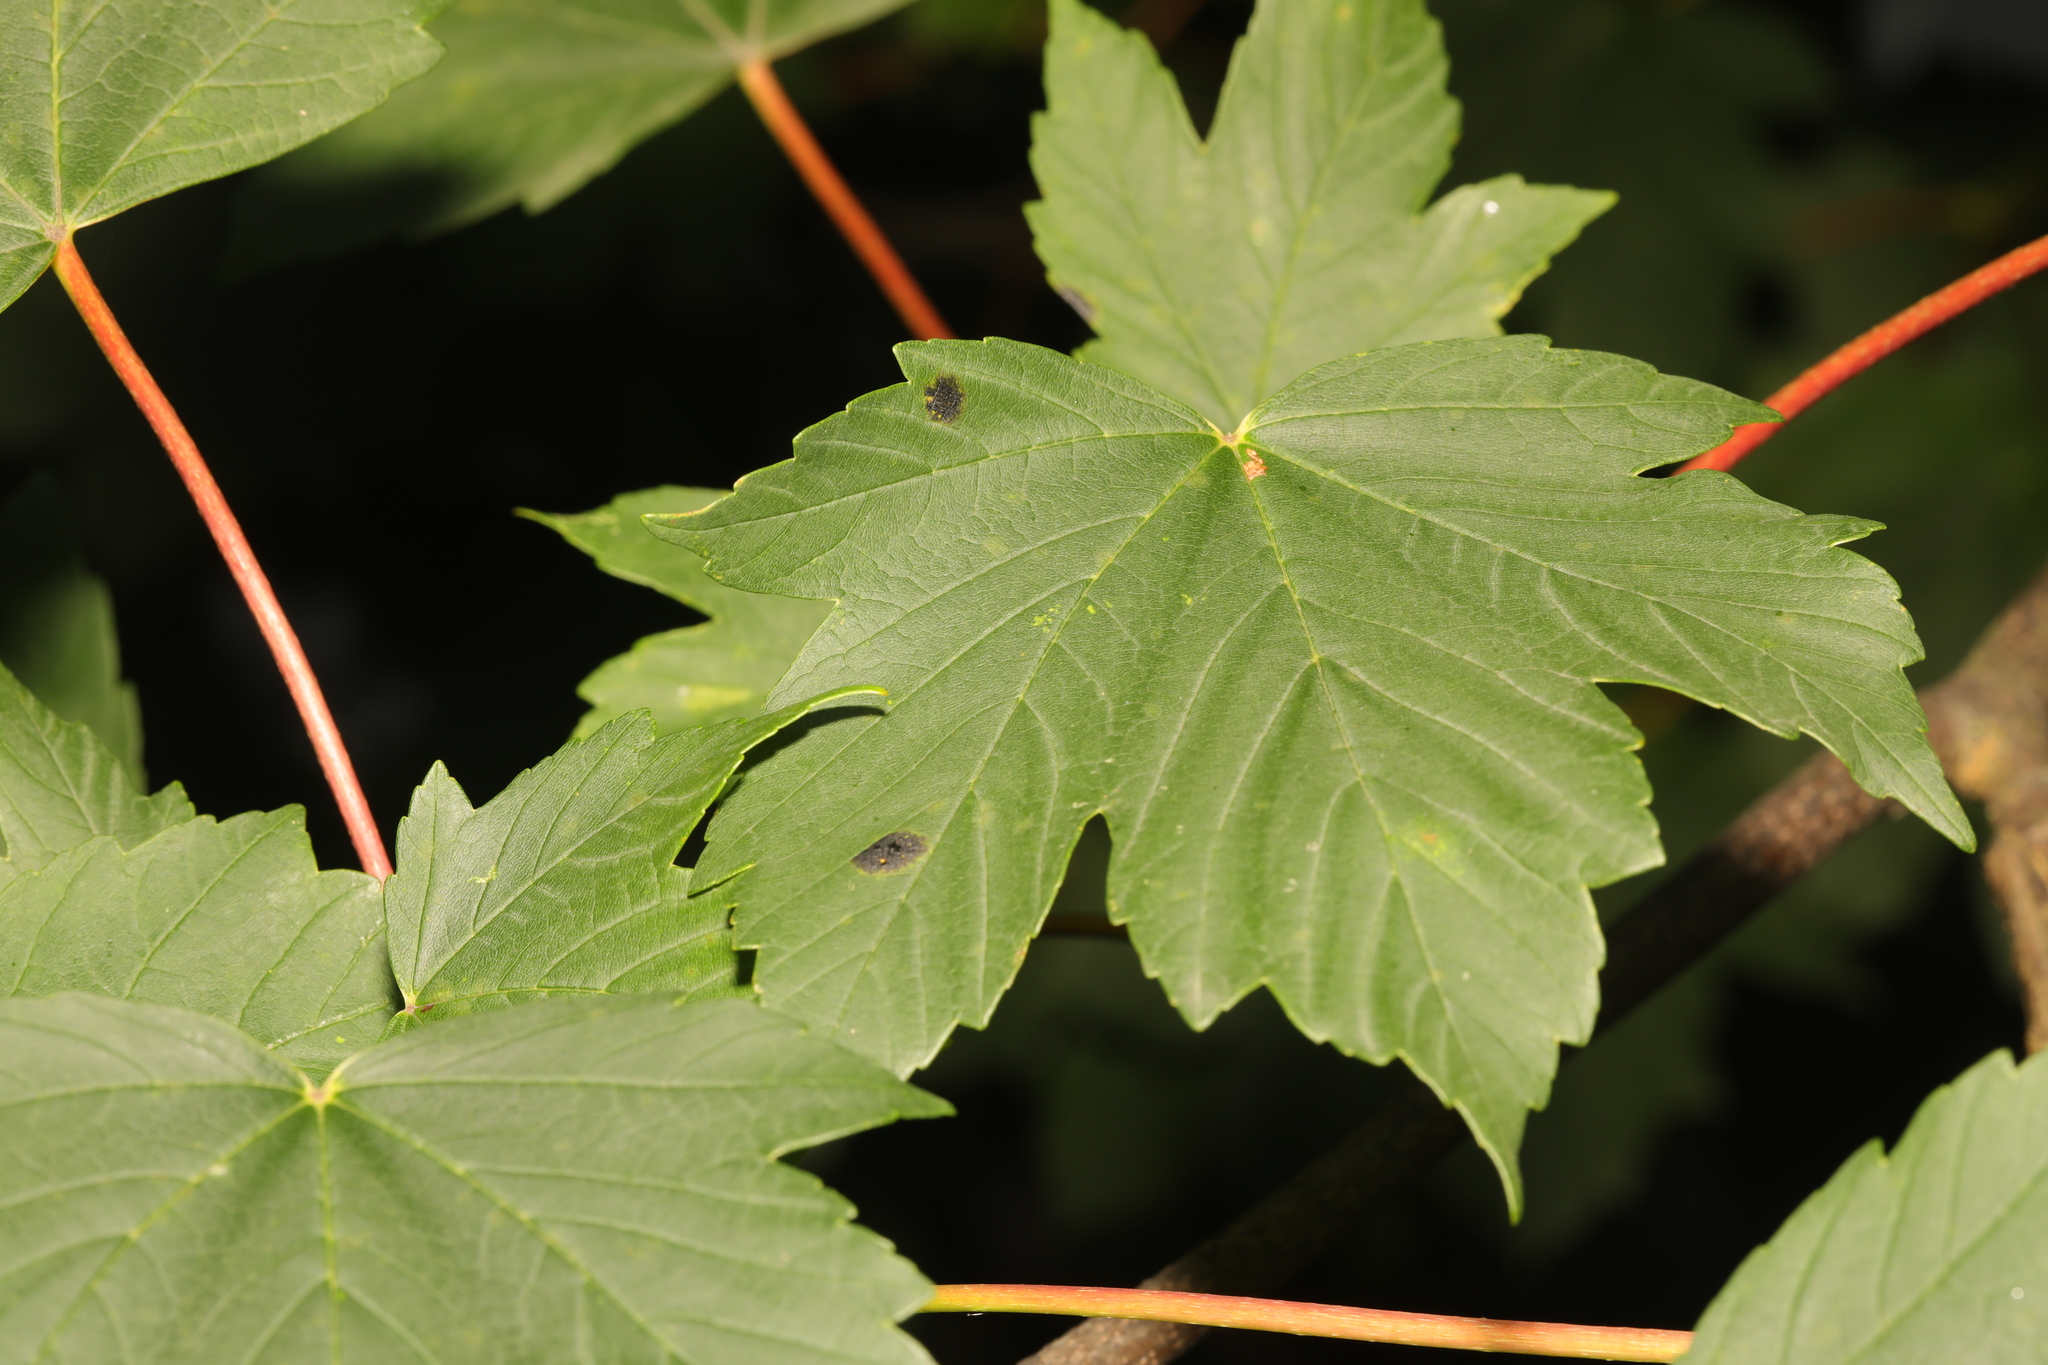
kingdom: Plantae
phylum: Tracheophyta
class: Magnoliopsida
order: Sapindales
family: Sapindaceae
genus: Acer
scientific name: Acer pseudoplatanus
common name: Sycamore
